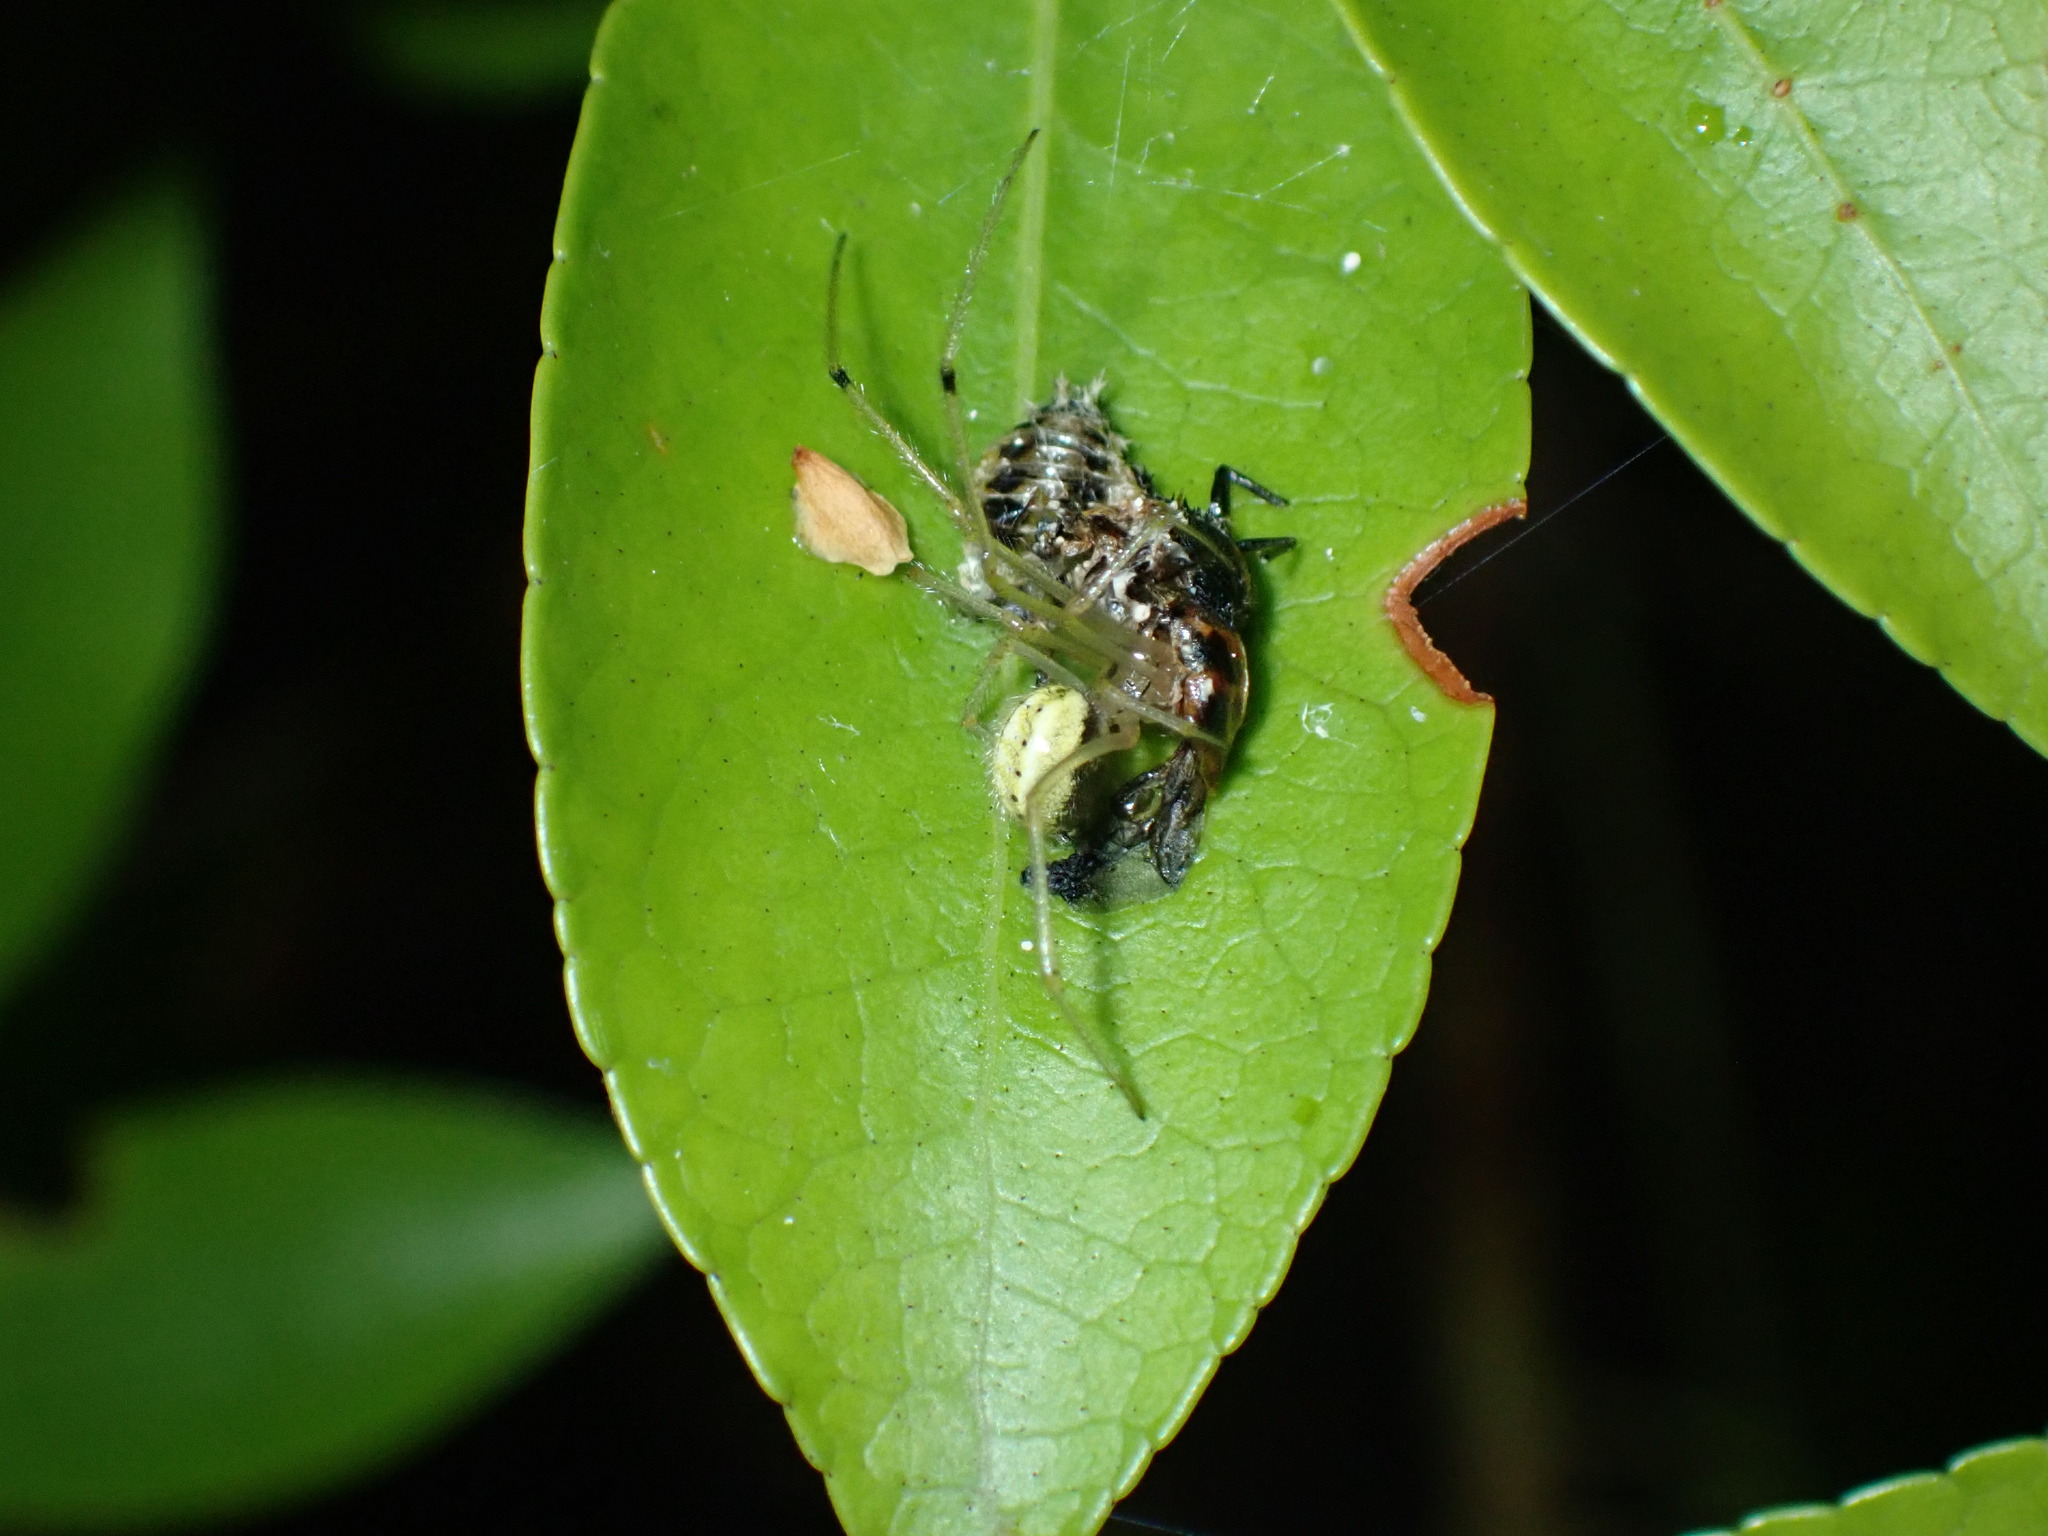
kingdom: Animalia
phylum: Arthropoda
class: Arachnida
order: Araneae
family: Theridiidae
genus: Enoplognatha
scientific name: Enoplognatha ovata
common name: Common candy-striped spider
